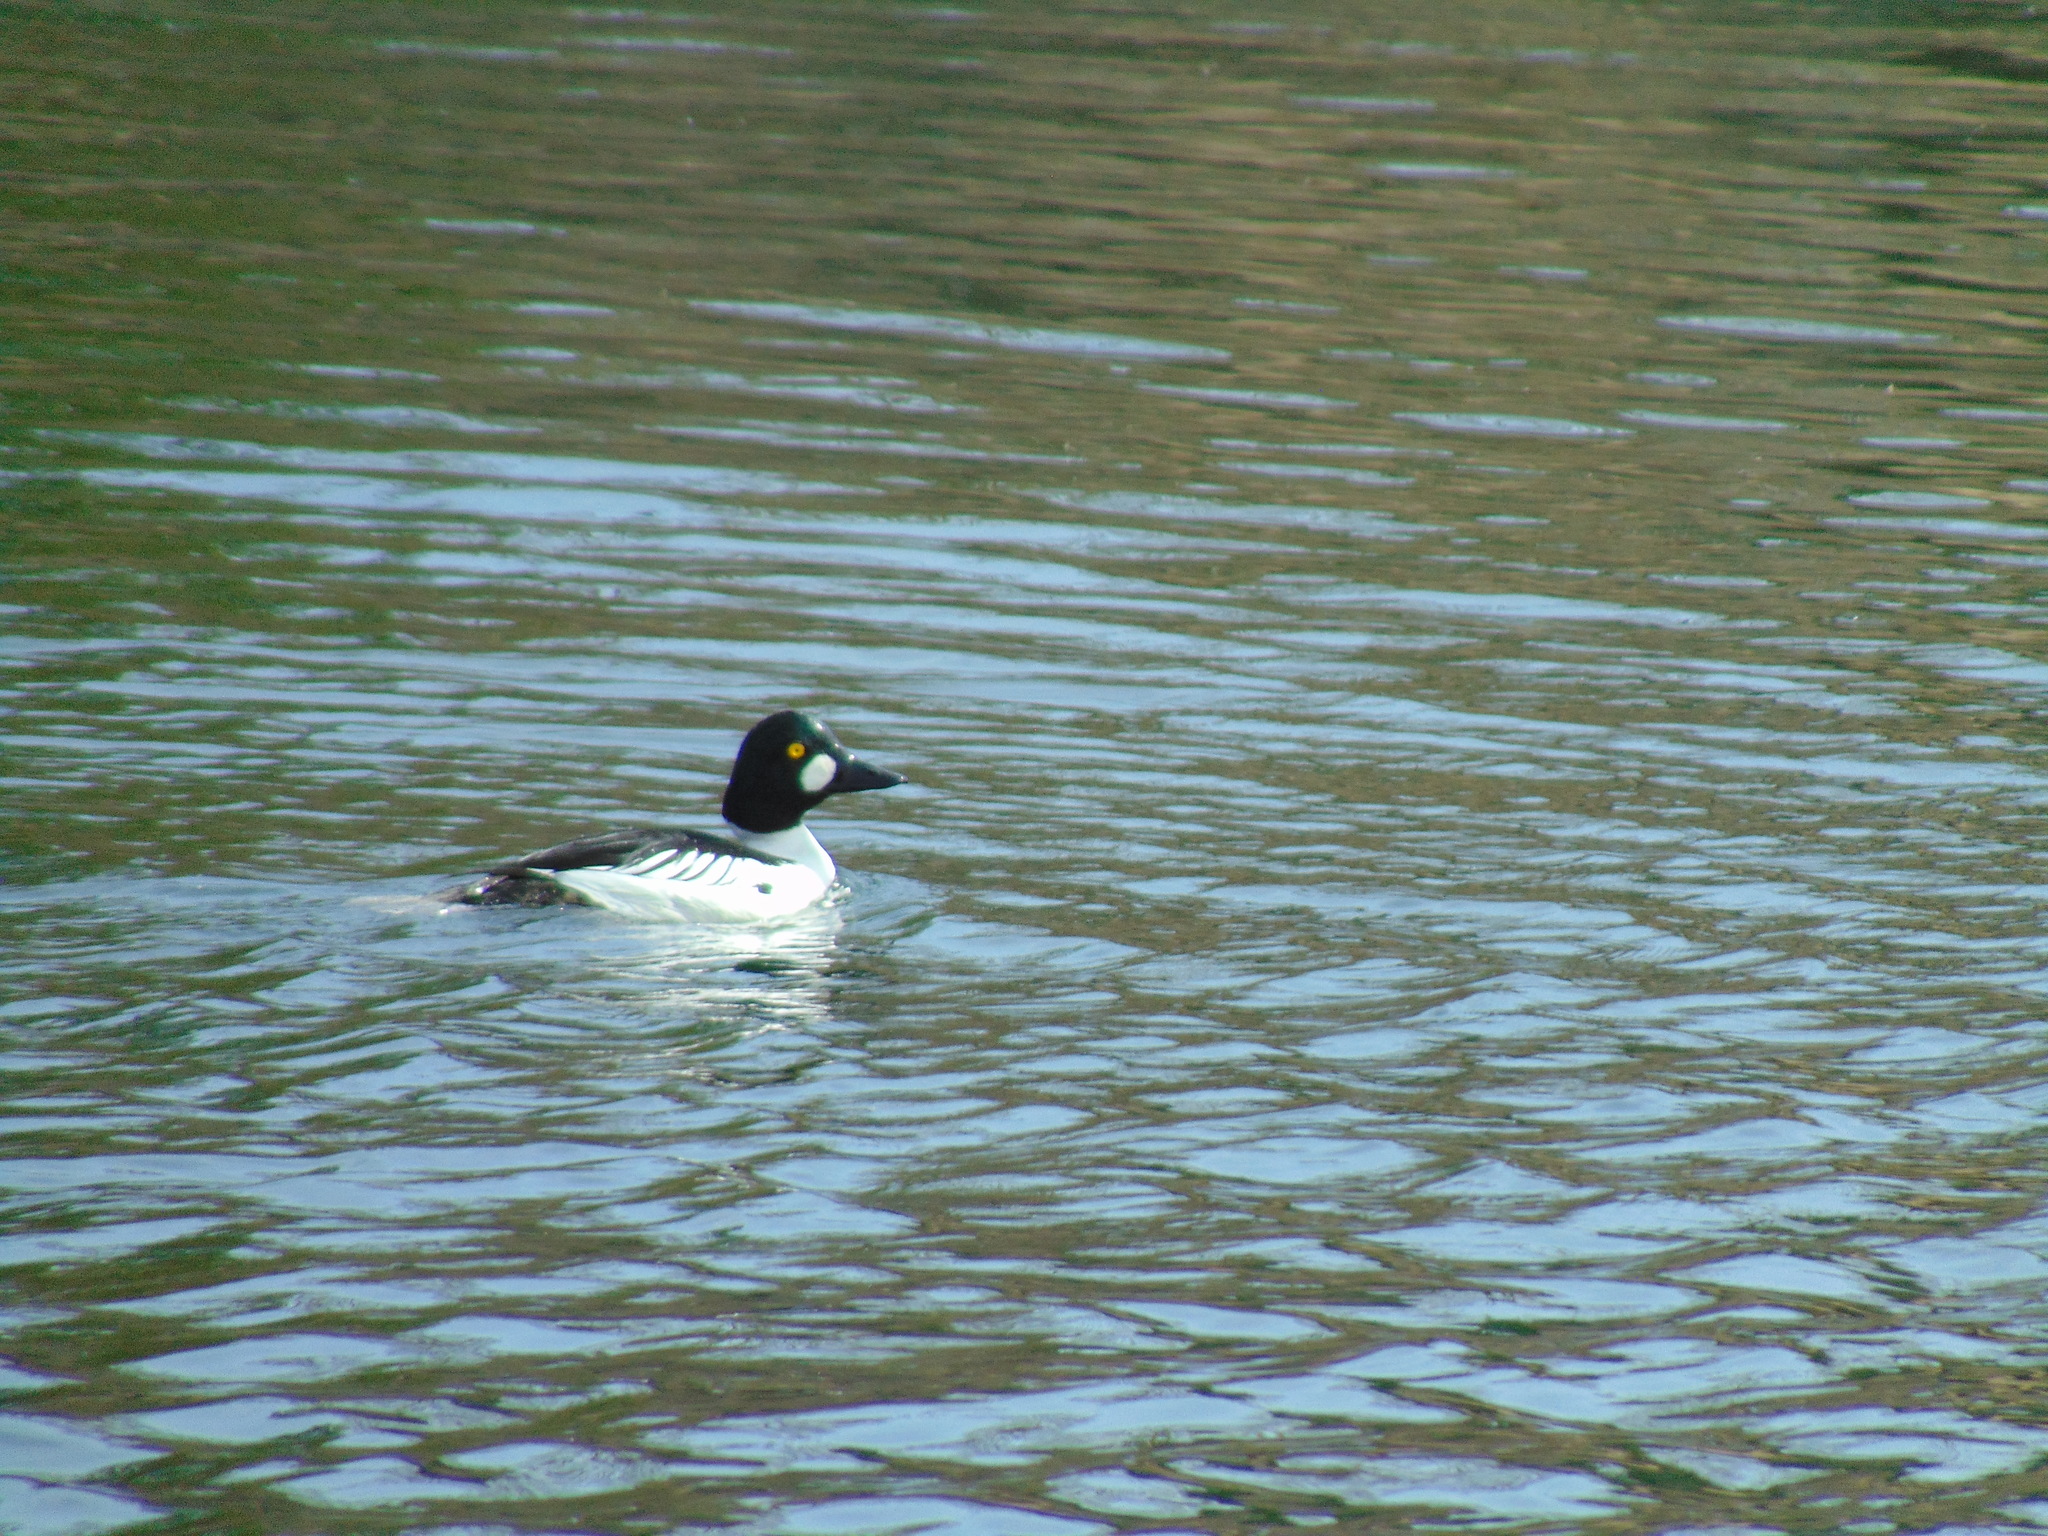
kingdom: Animalia
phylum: Chordata
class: Aves
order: Anseriformes
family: Anatidae
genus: Bucephala
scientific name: Bucephala clangula
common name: Common goldeneye
